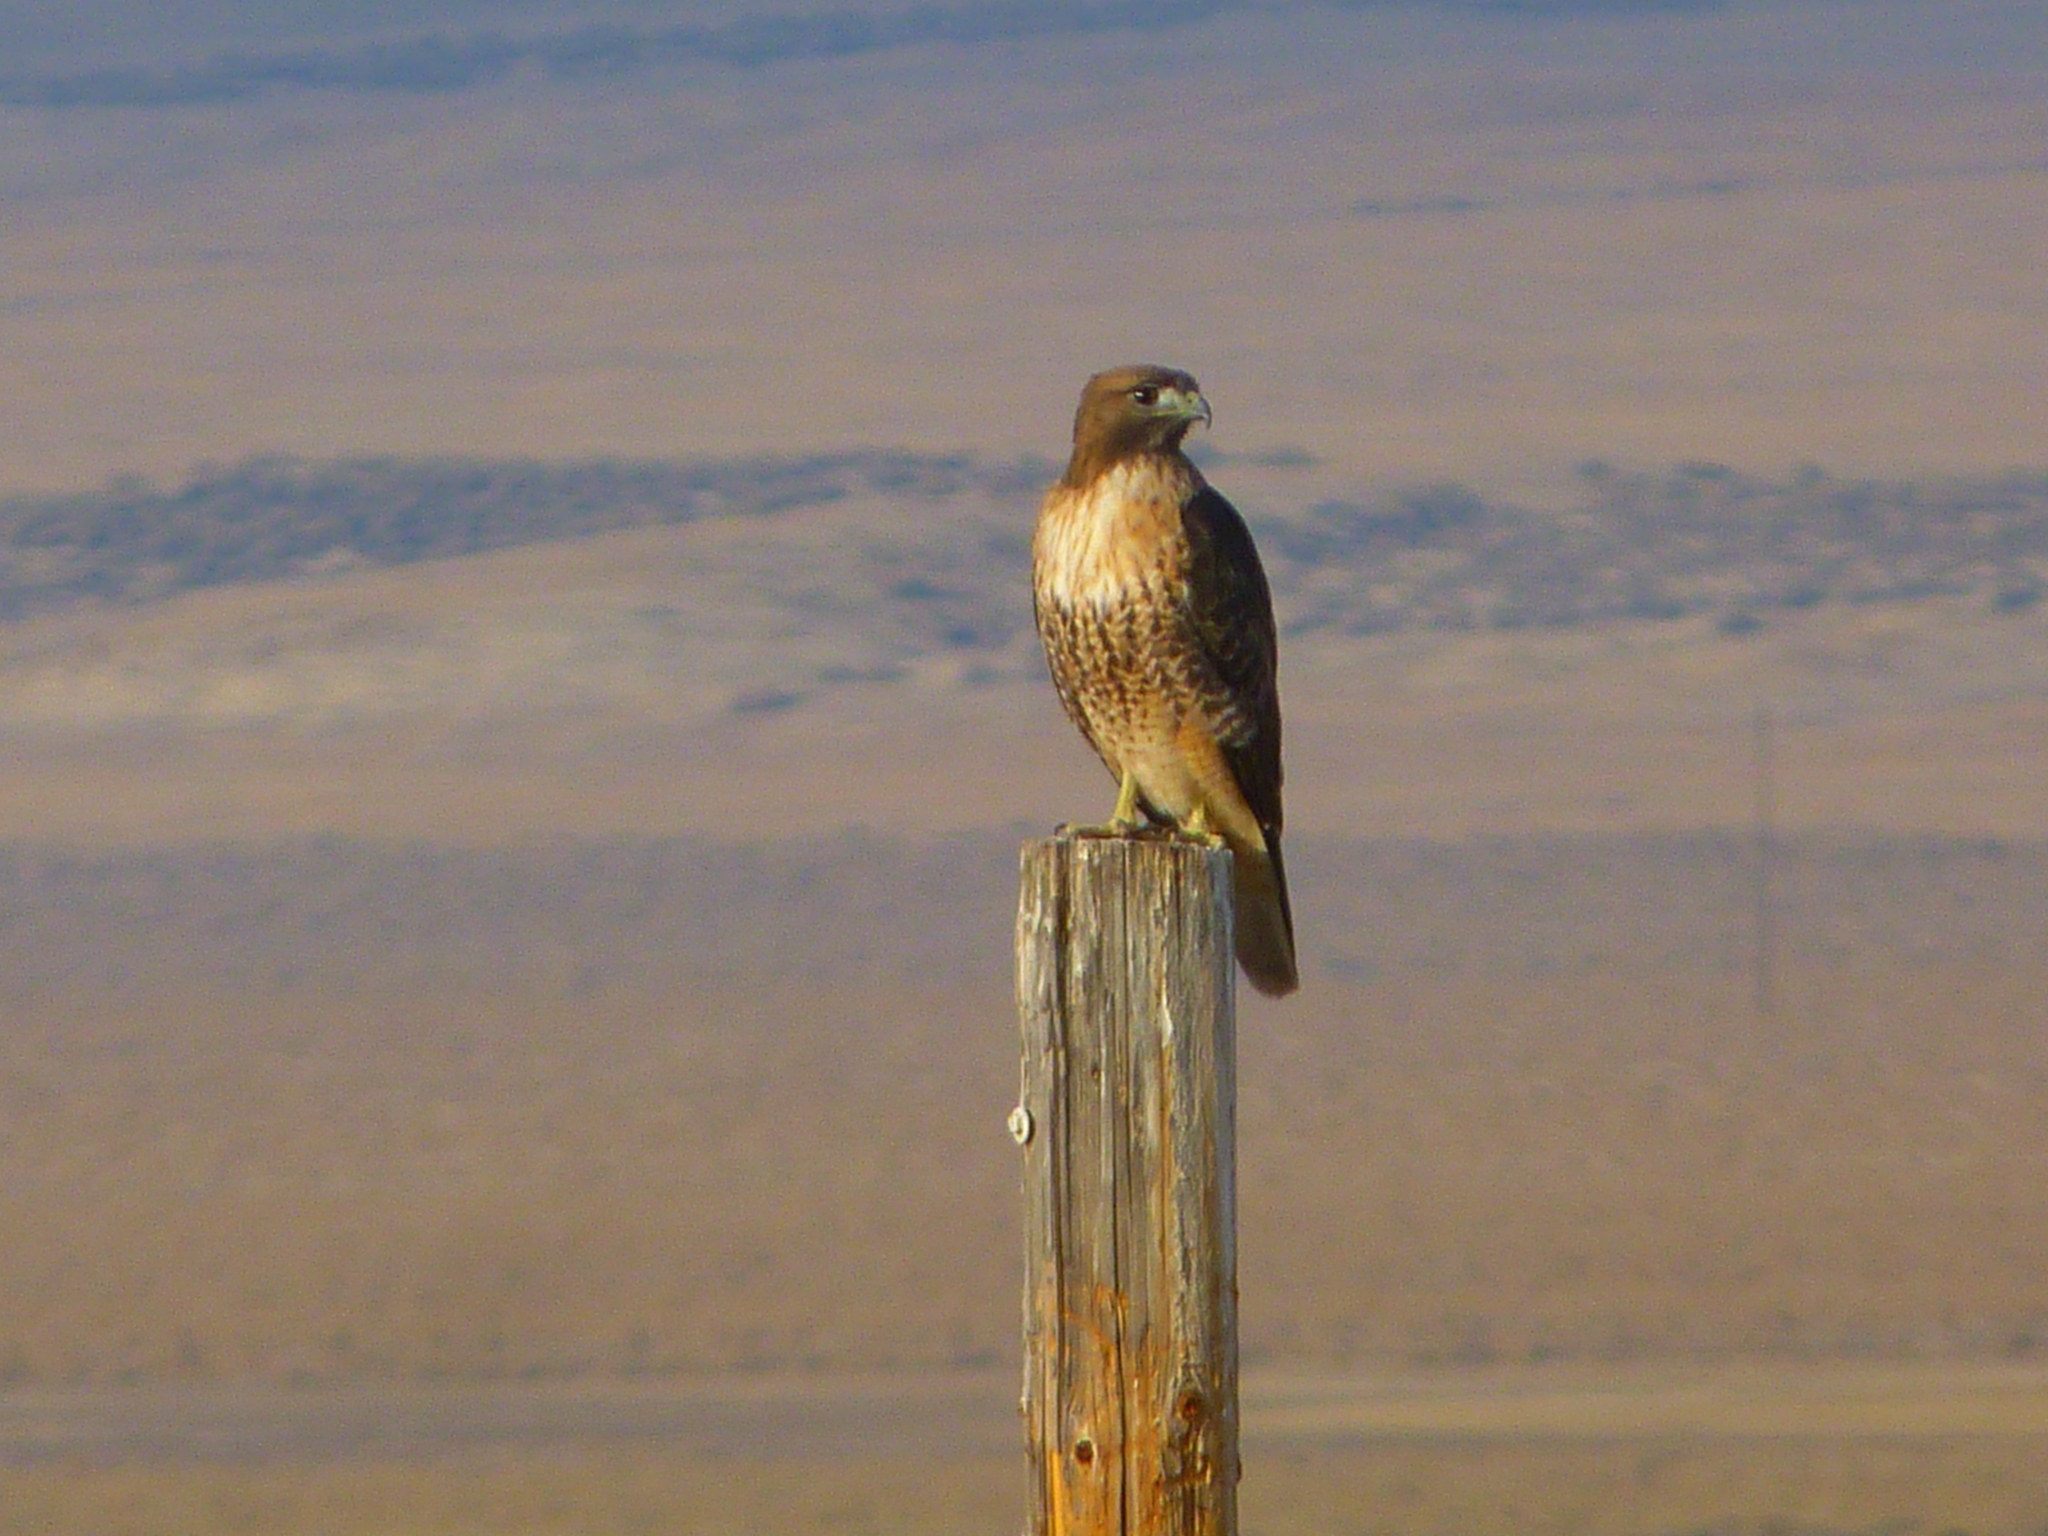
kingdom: Animalia
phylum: Chordata
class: Aves
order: Accipitriformes
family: Accipitridae
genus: Buteo
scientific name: Buteo jamaicensis
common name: Red-tailed hawk
